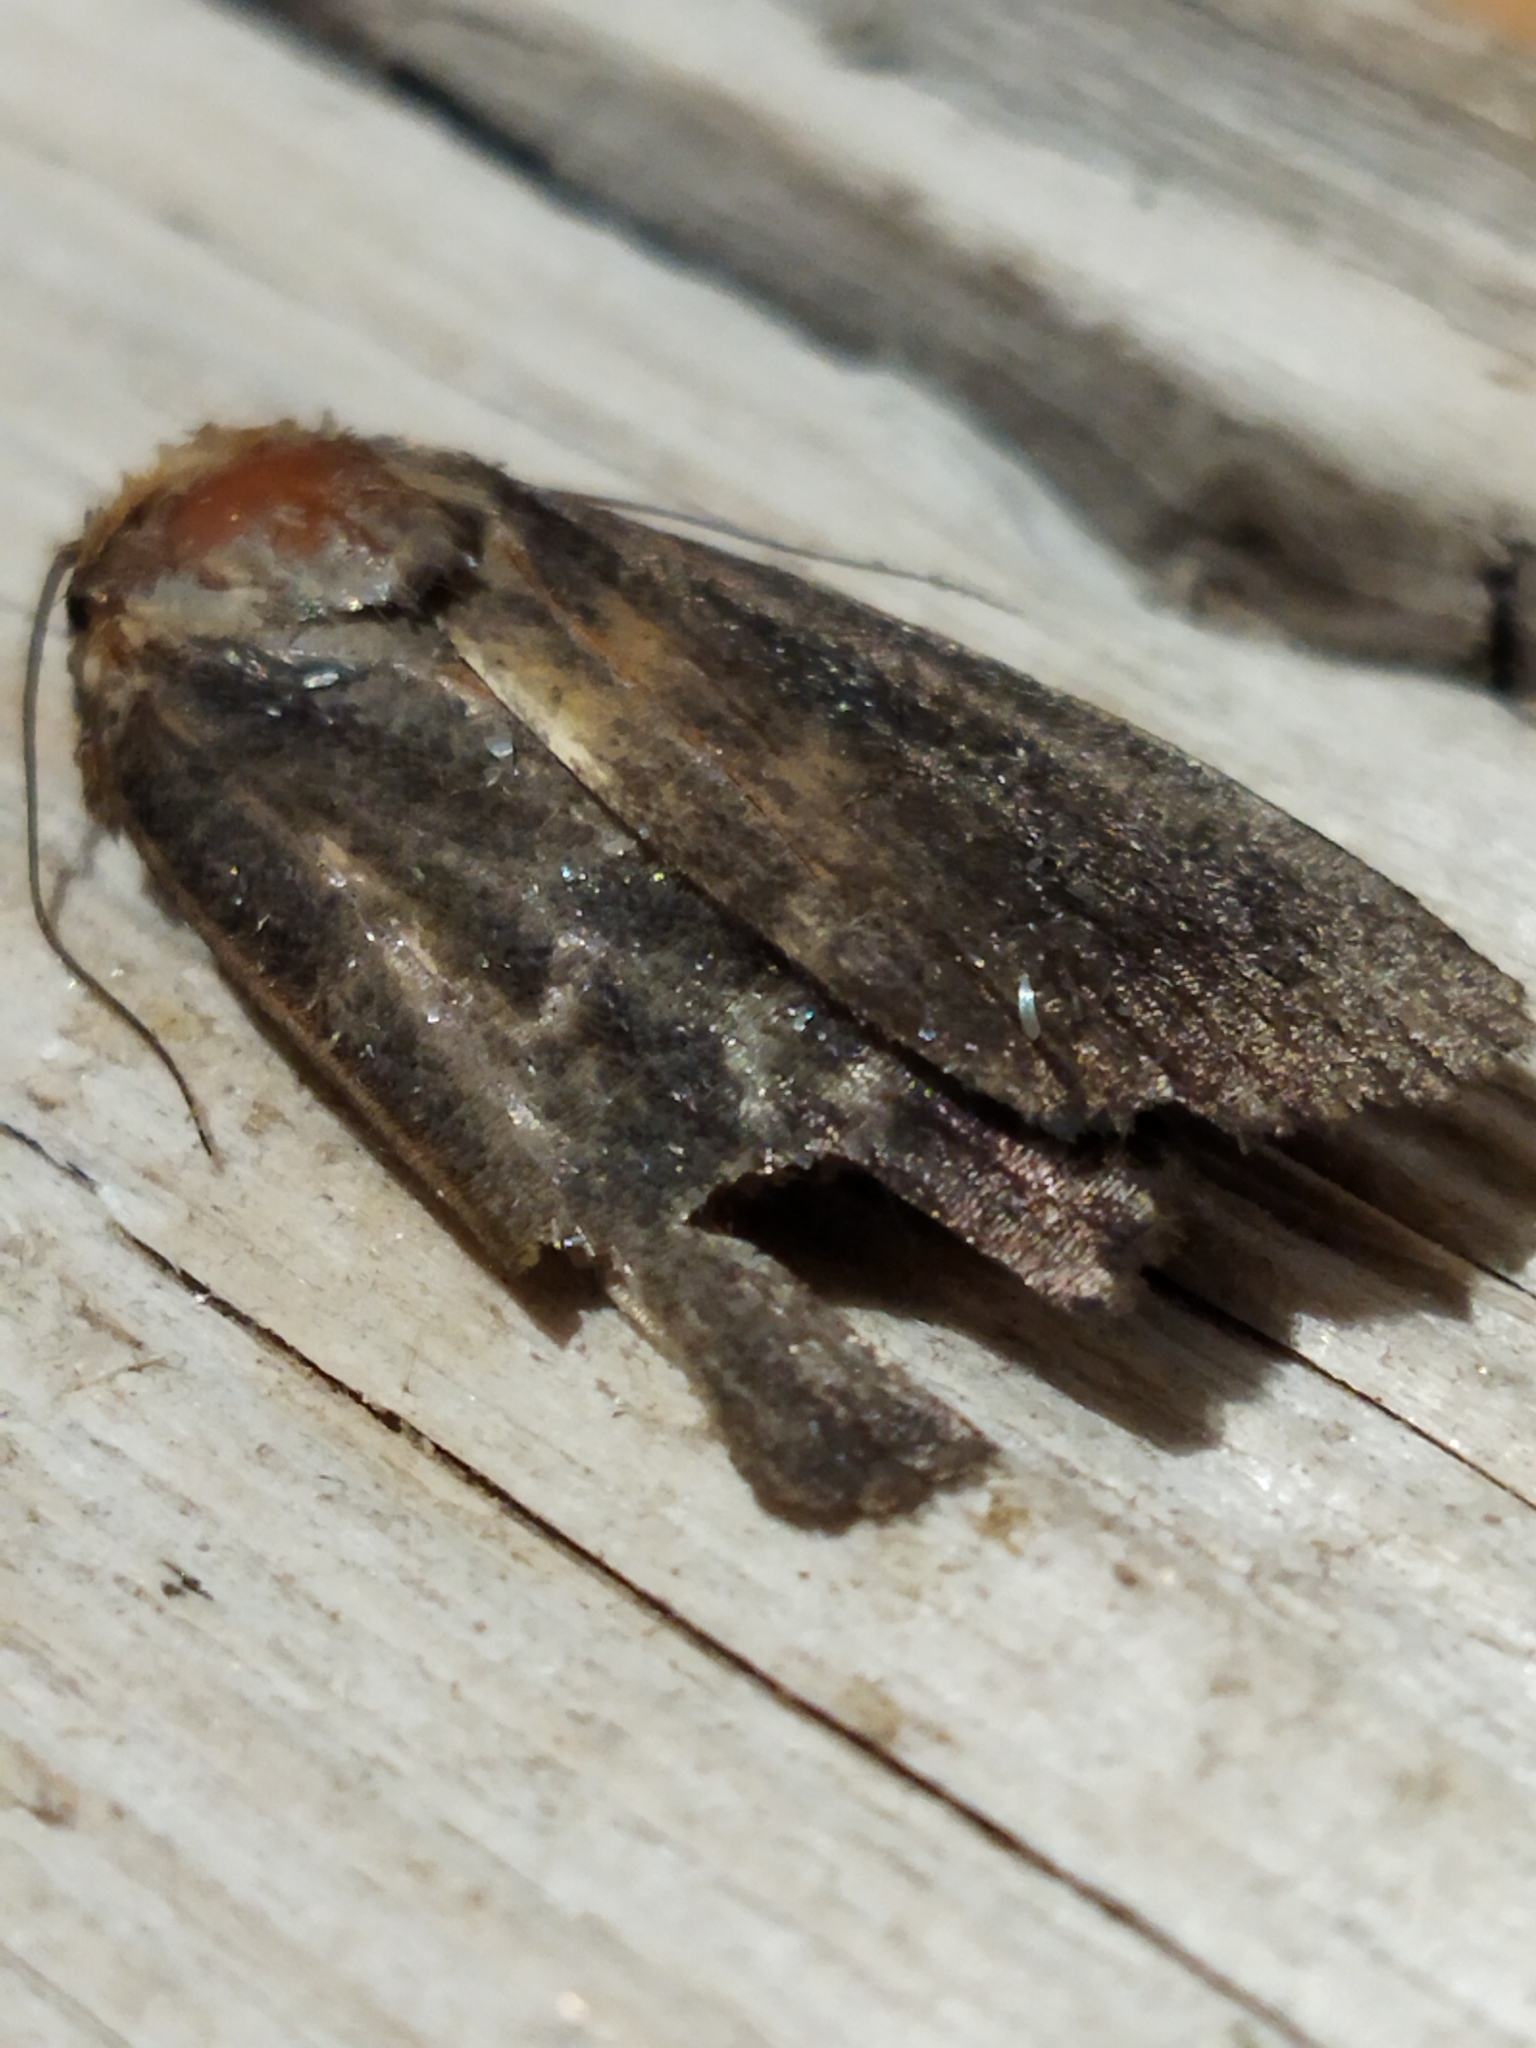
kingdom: Animalia
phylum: Arthropoda
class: Insecta
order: Lepidoptera
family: Noctuidae
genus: Amphipyra
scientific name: Amphipyra livida
